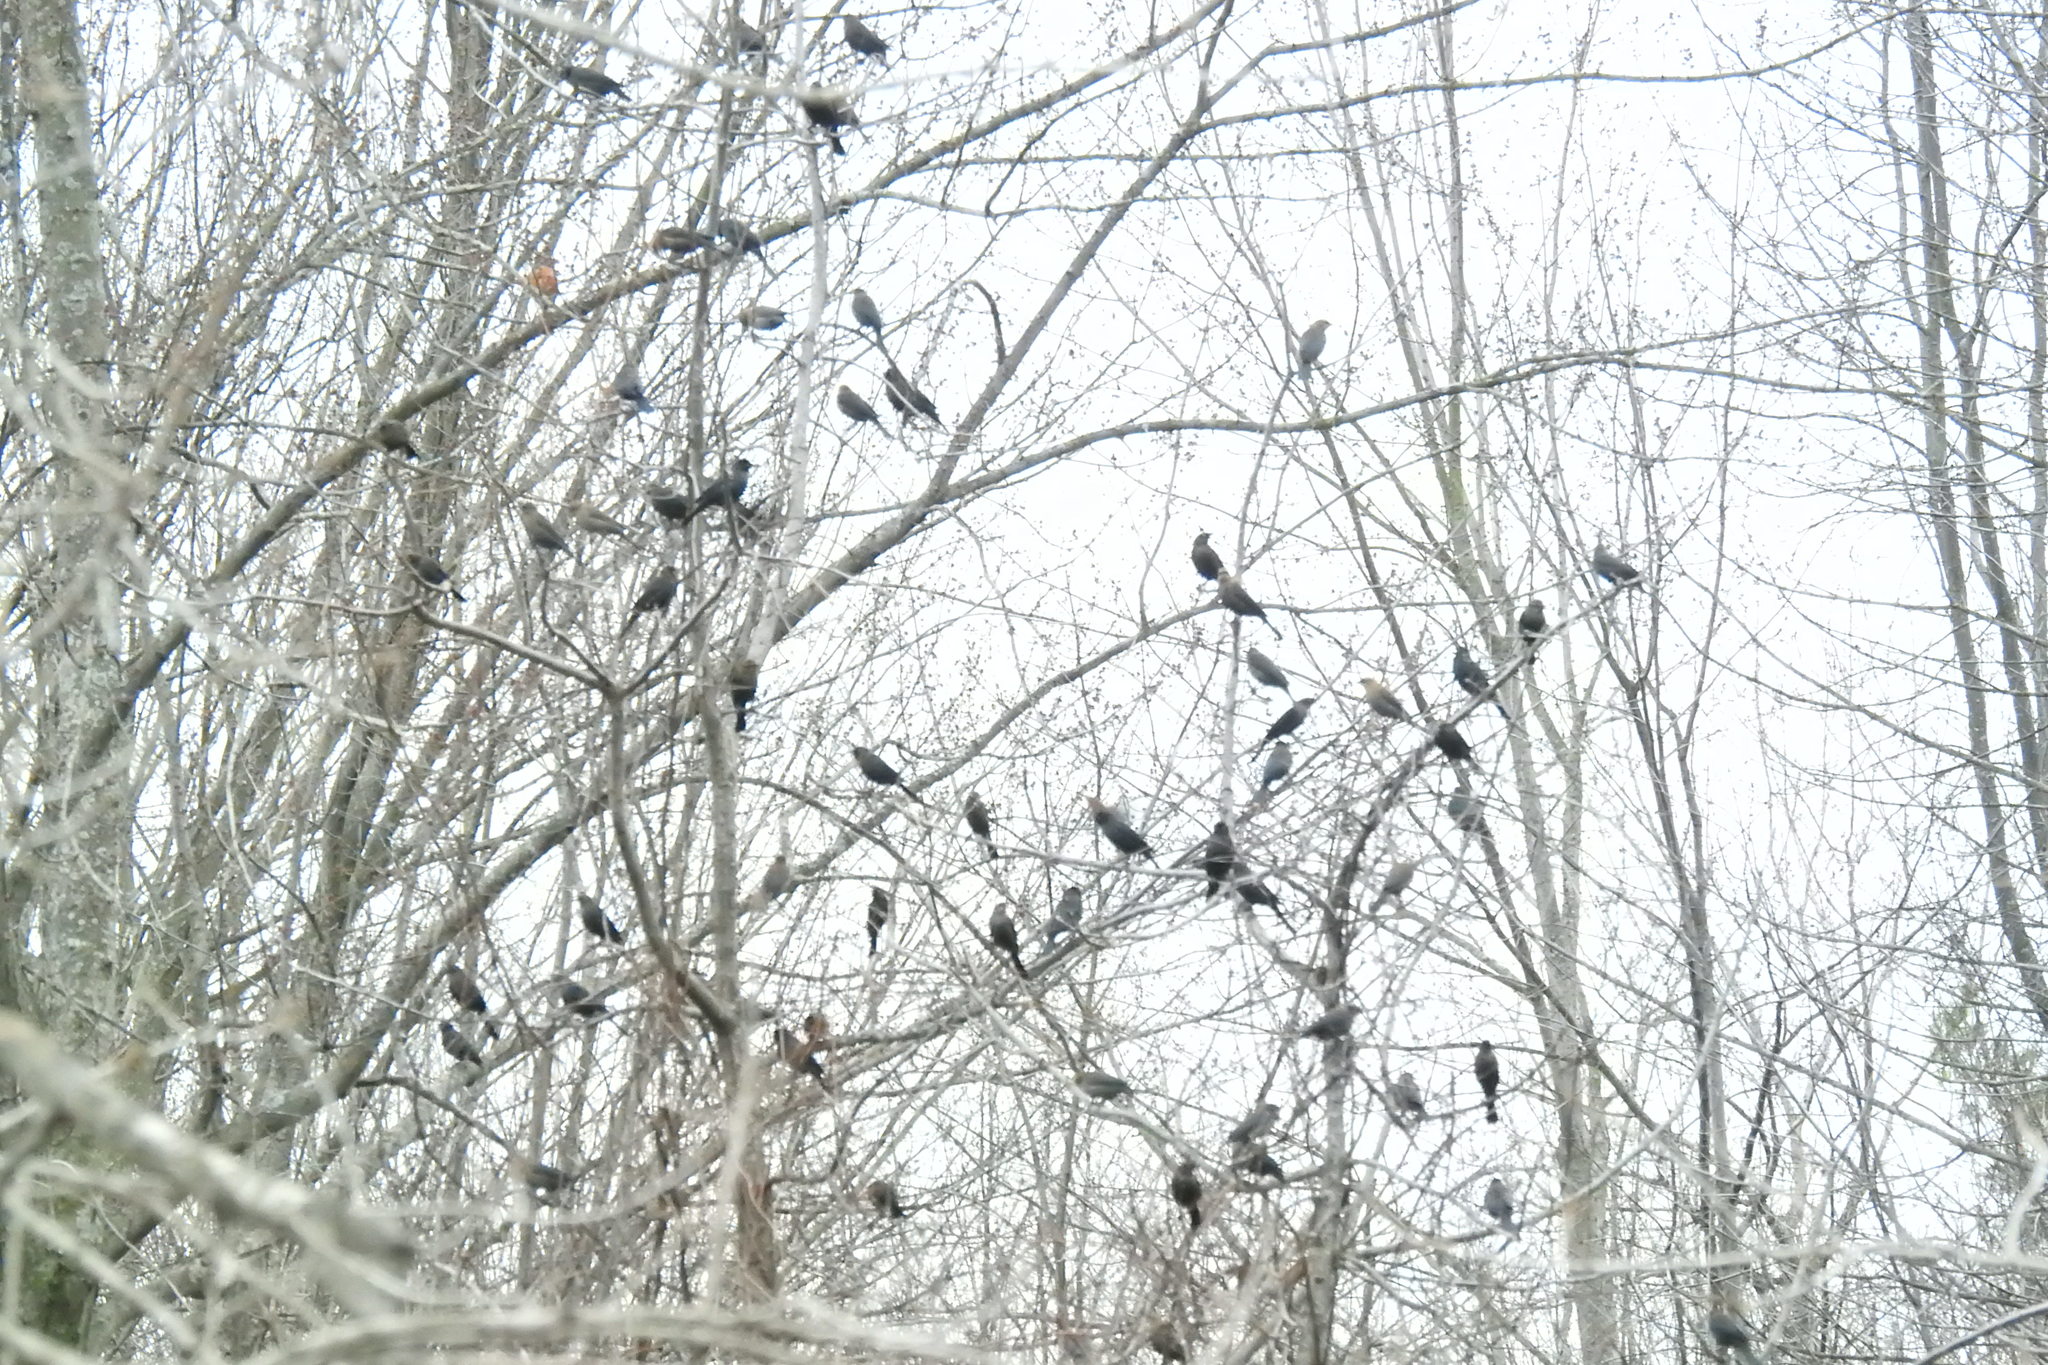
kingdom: Animalia
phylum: Chordata
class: Aves
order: Passeriformes
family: Icteridae
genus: Euphagus
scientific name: Euphagus carolinus
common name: Rusty blackbird
